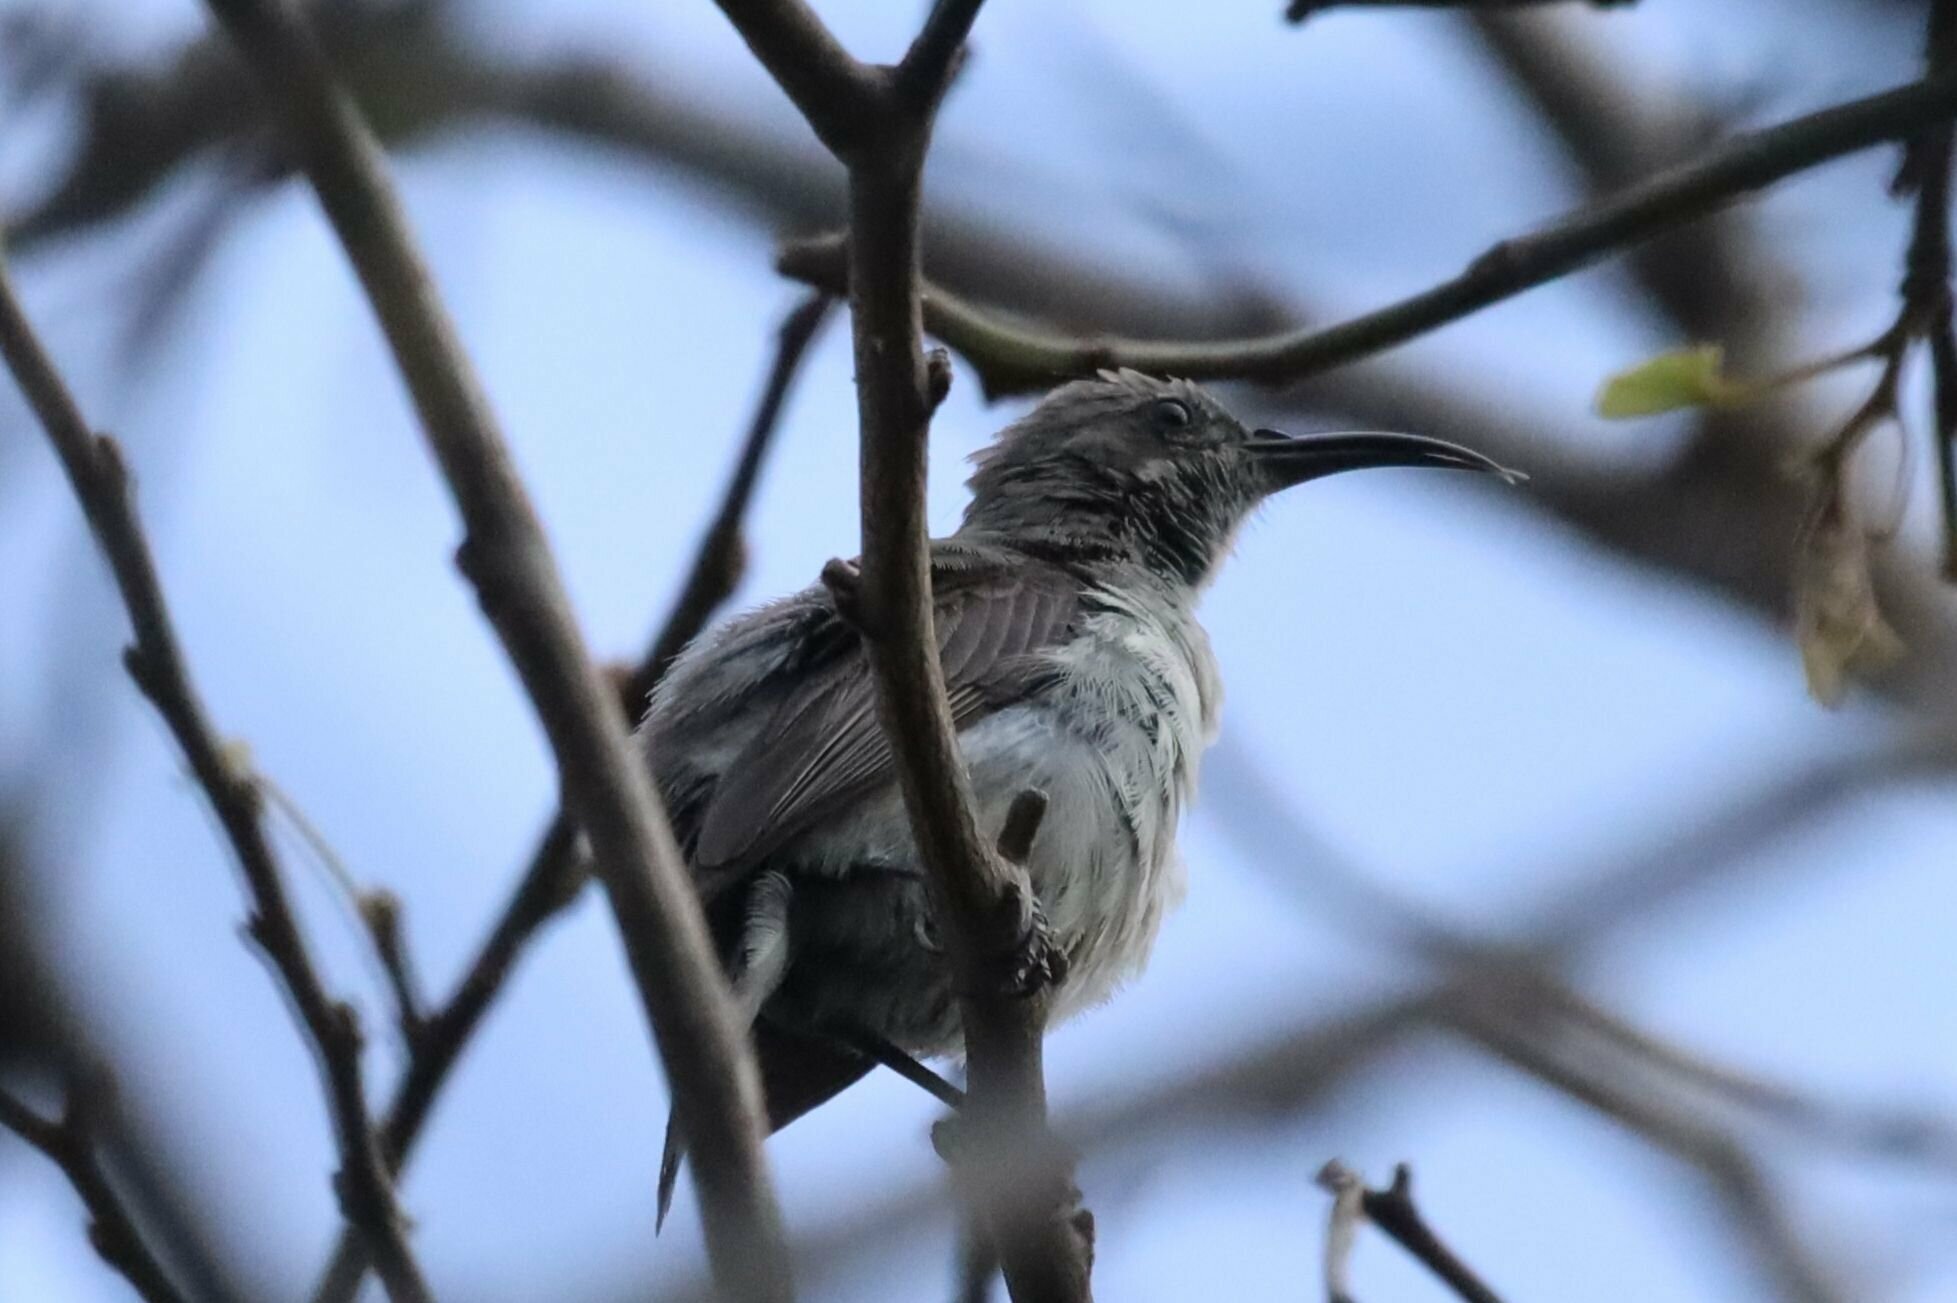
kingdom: Animalia
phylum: Chordata
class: Aves
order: Passeriformes
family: Nectariniidae
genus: Cinnyris
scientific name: Cinnyris talatala
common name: White-bellied sunbird
